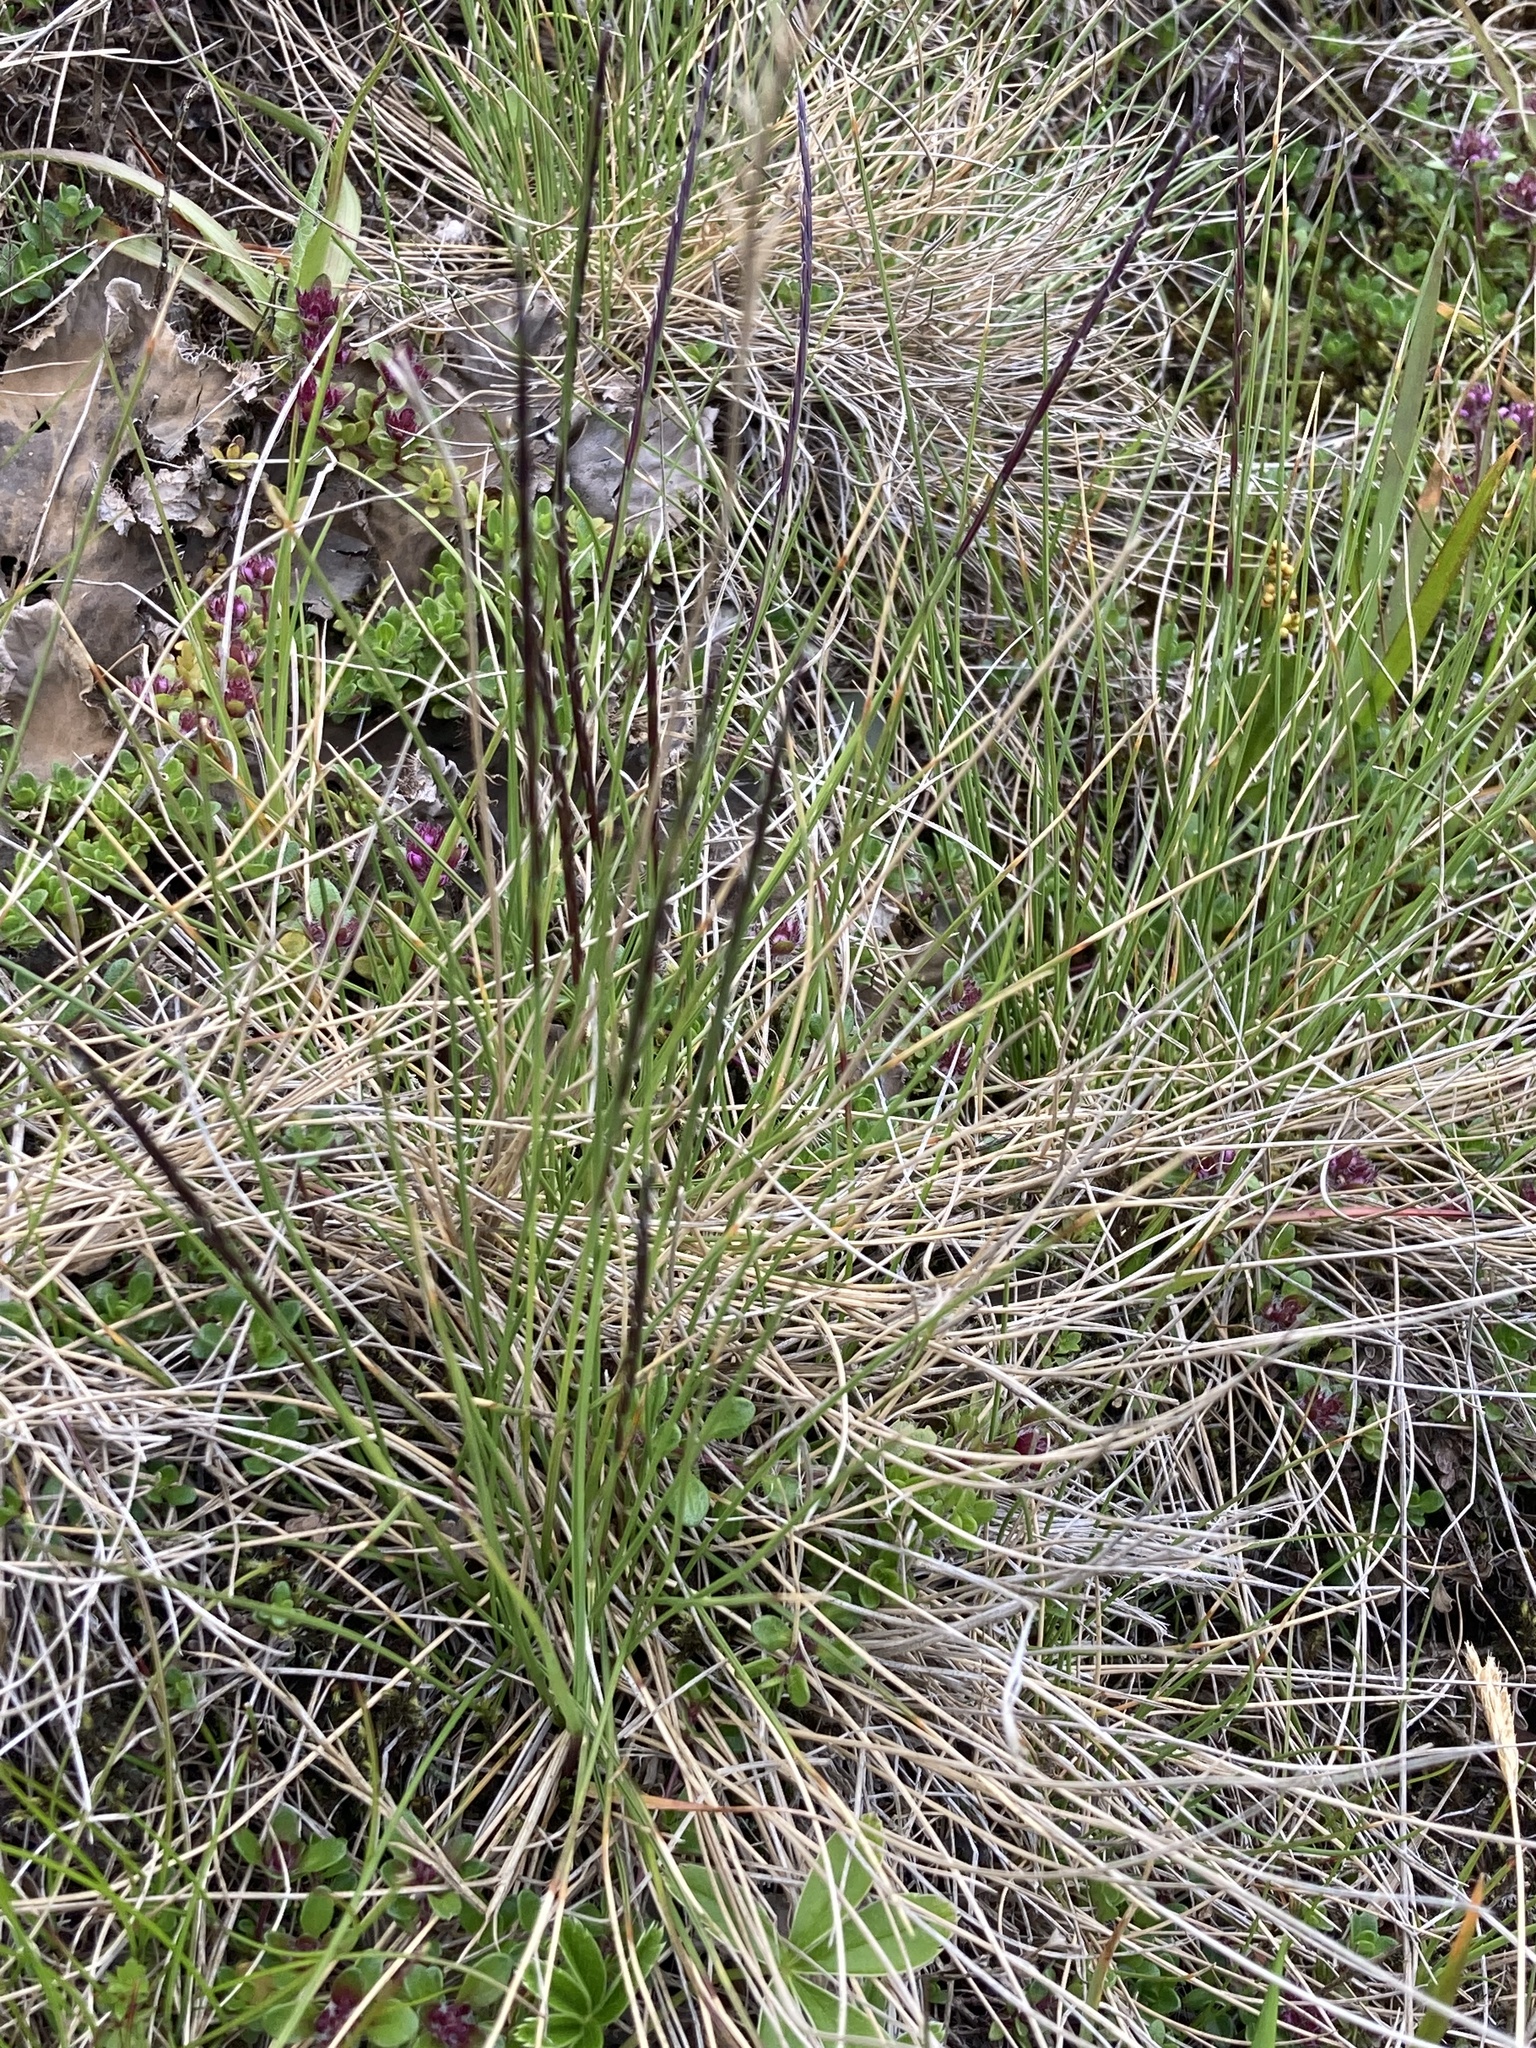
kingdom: Plantae
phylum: Tracheophyta
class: Liliopsida
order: Poales
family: Poaceae
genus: Nardus
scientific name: Nardus stricta
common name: Mat-grass
